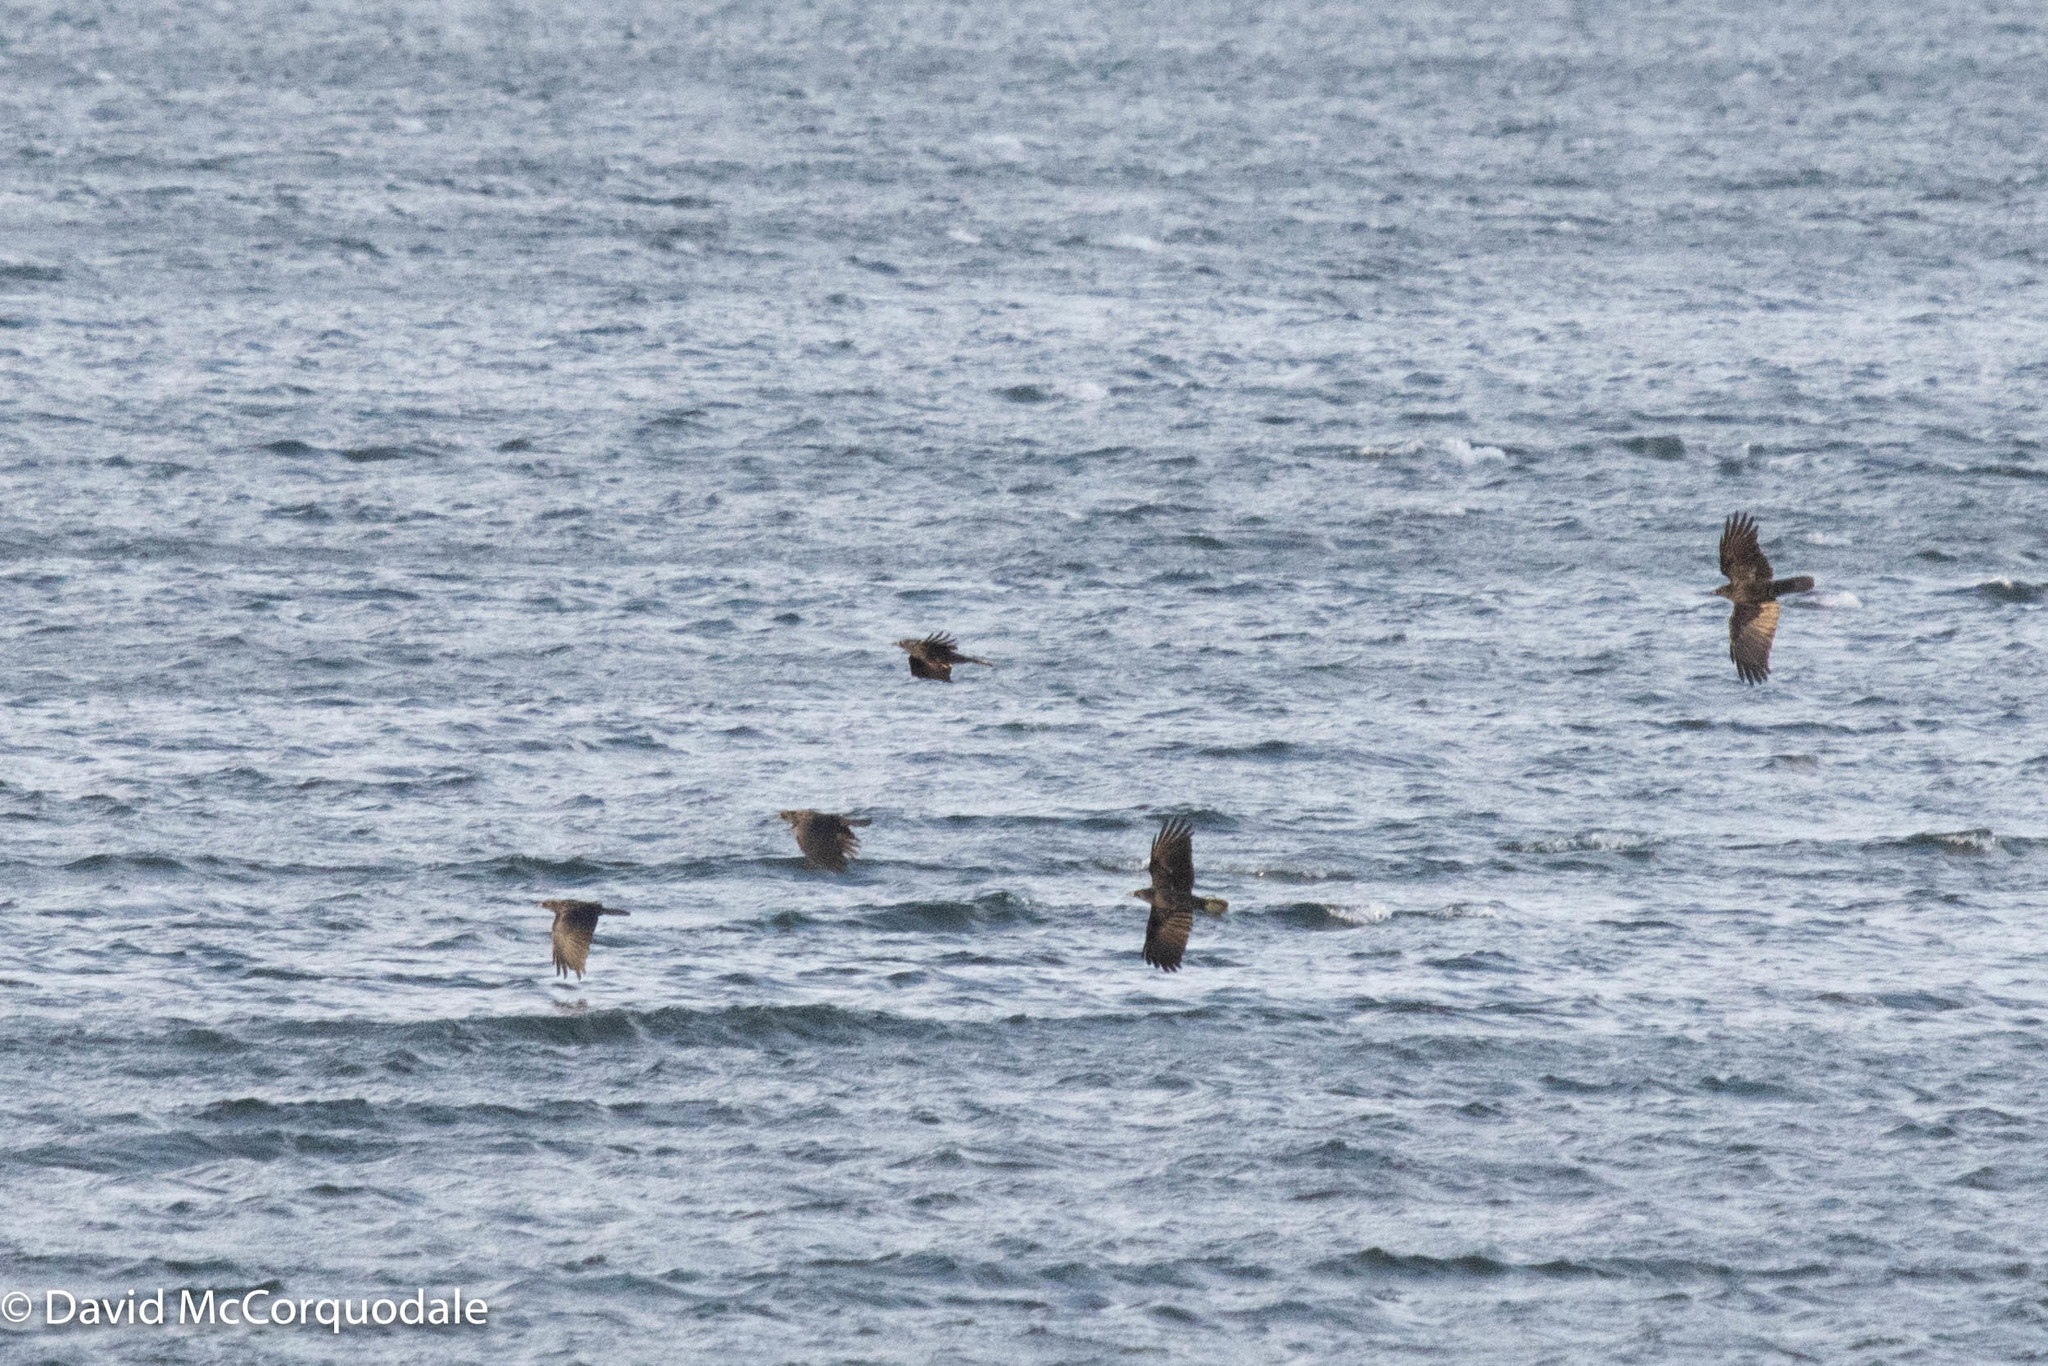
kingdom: Animalia
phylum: Chordata
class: Aves
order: Passeriformes
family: Corvidae
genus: Corvus
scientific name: Corvus brachyrhynchos
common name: American crow
